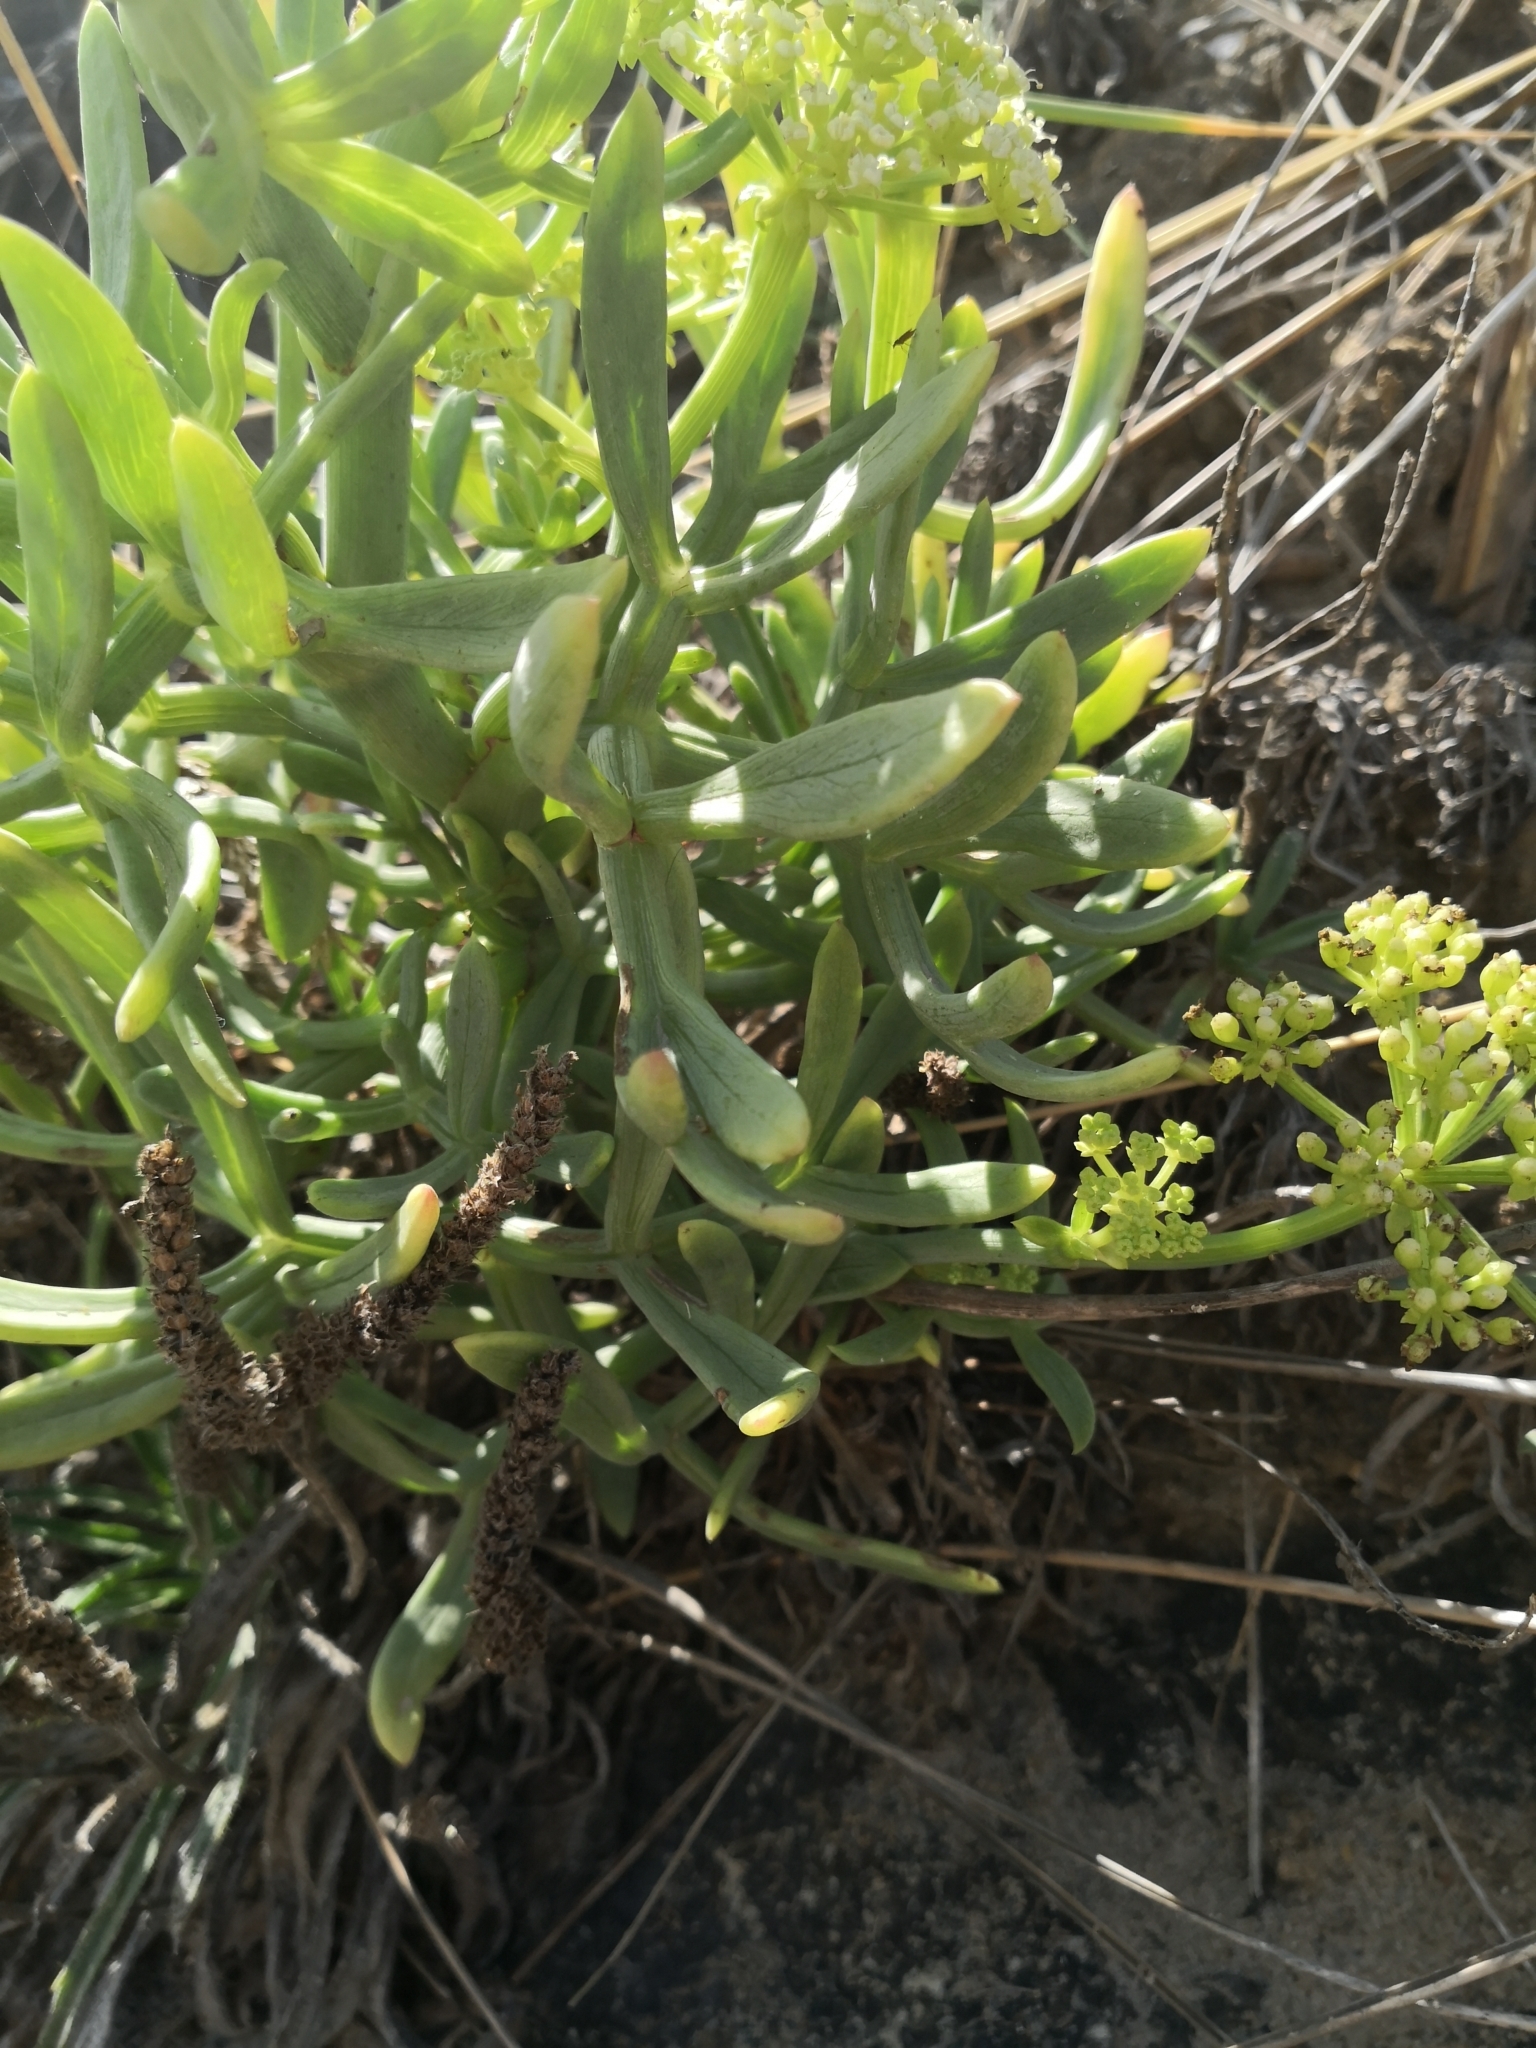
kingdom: Plantae
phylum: Tracheophyta
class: Magnoliopsida
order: Apiales
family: Apiaceae
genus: Crithmum
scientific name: Crithmum maritimum
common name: Rock samphire
